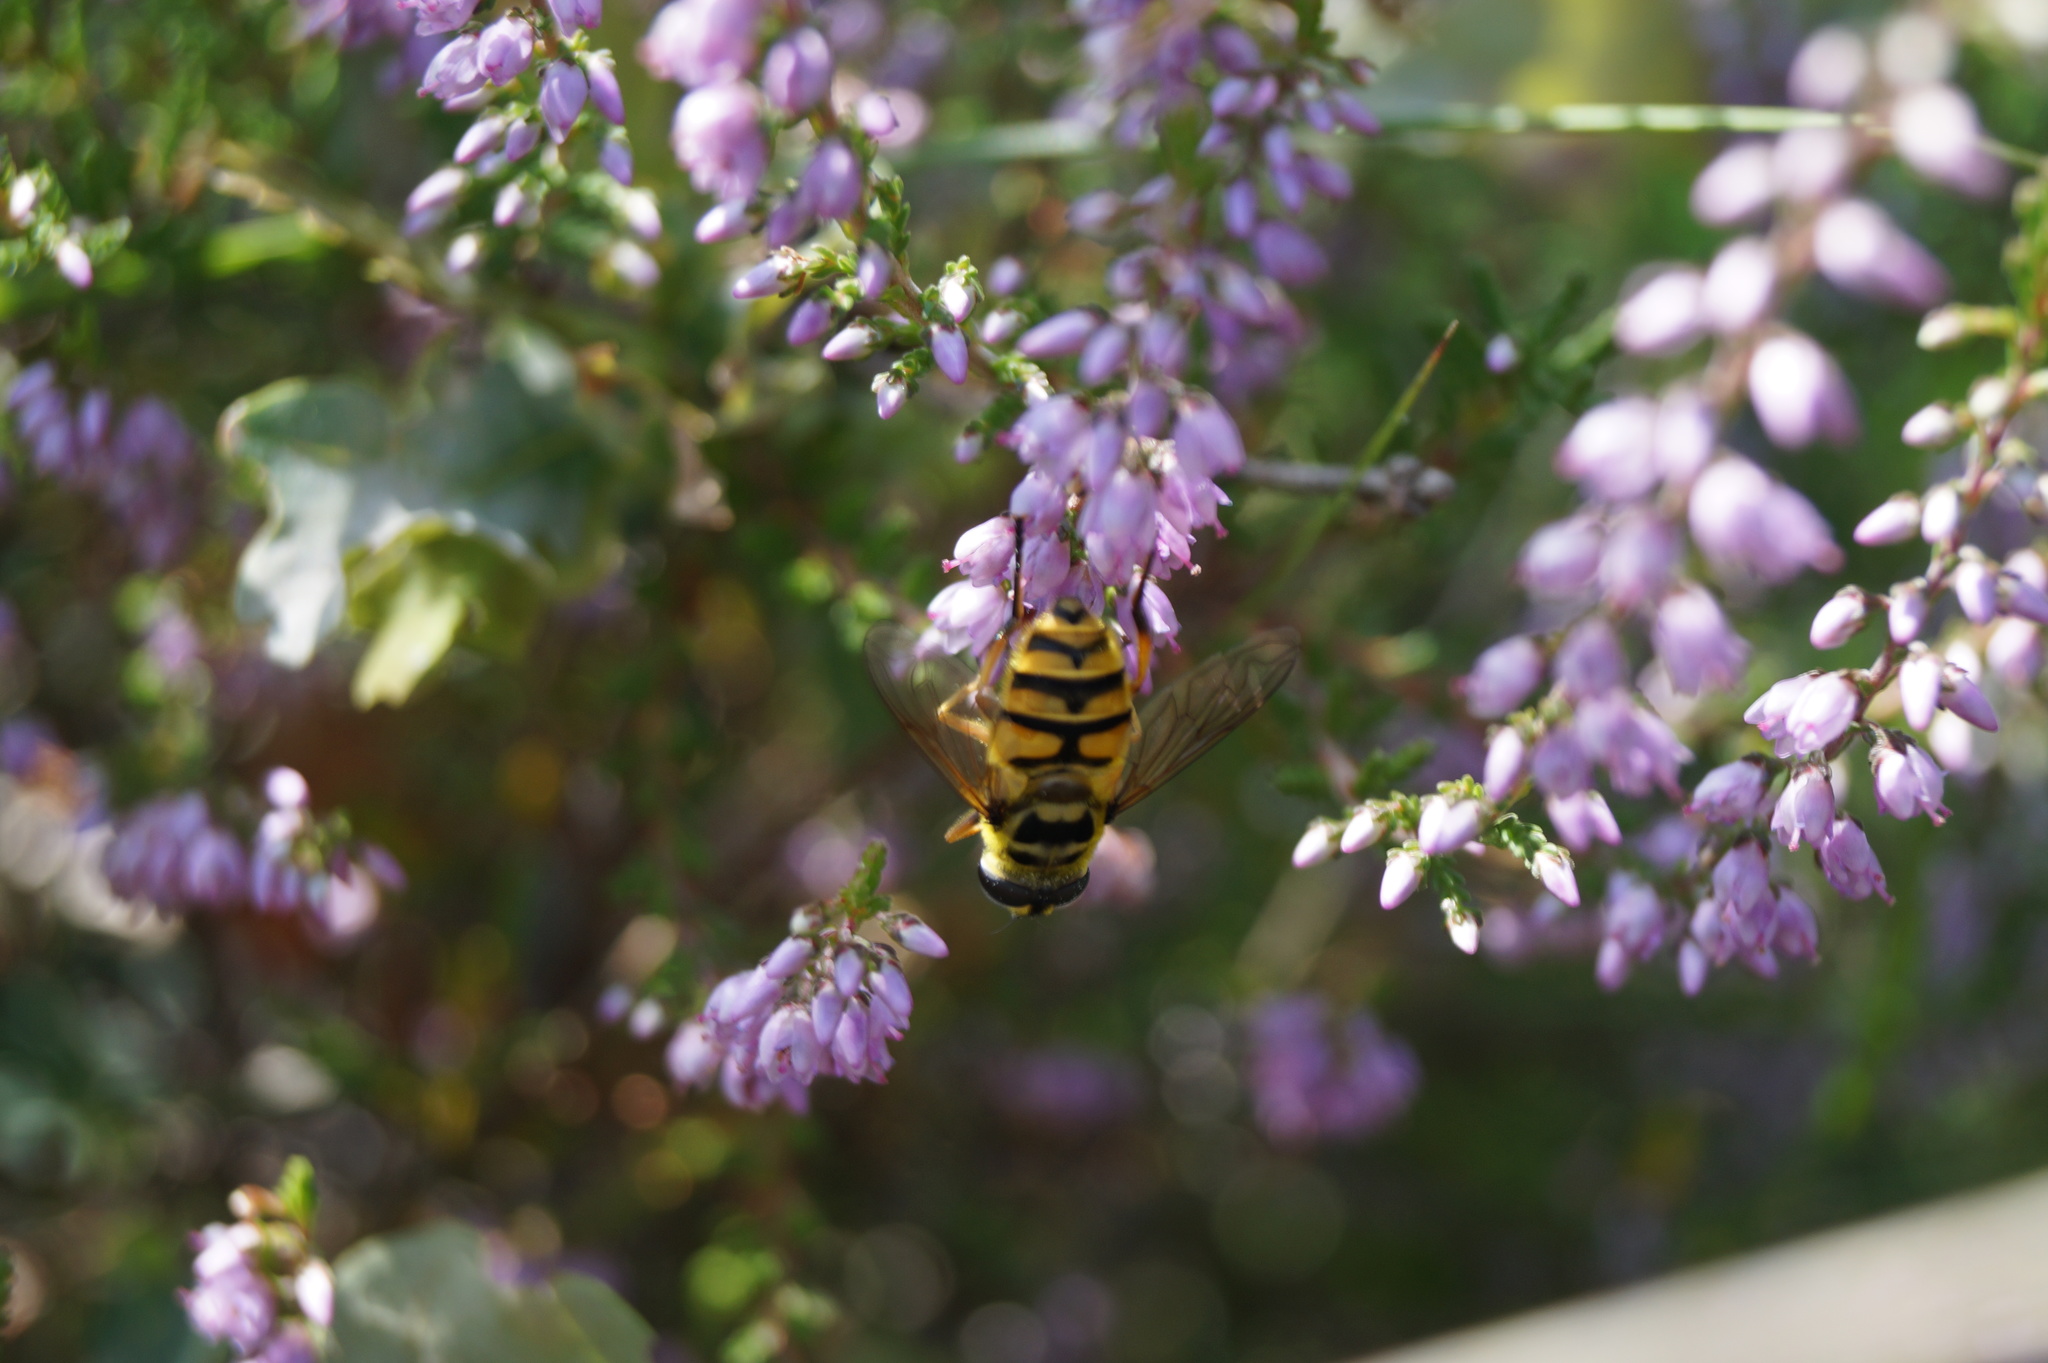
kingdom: Animalia
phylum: Arthropoda
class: Insecta
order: Diptera
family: Syrphidae
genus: Myathropa
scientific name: Myathropa florea
